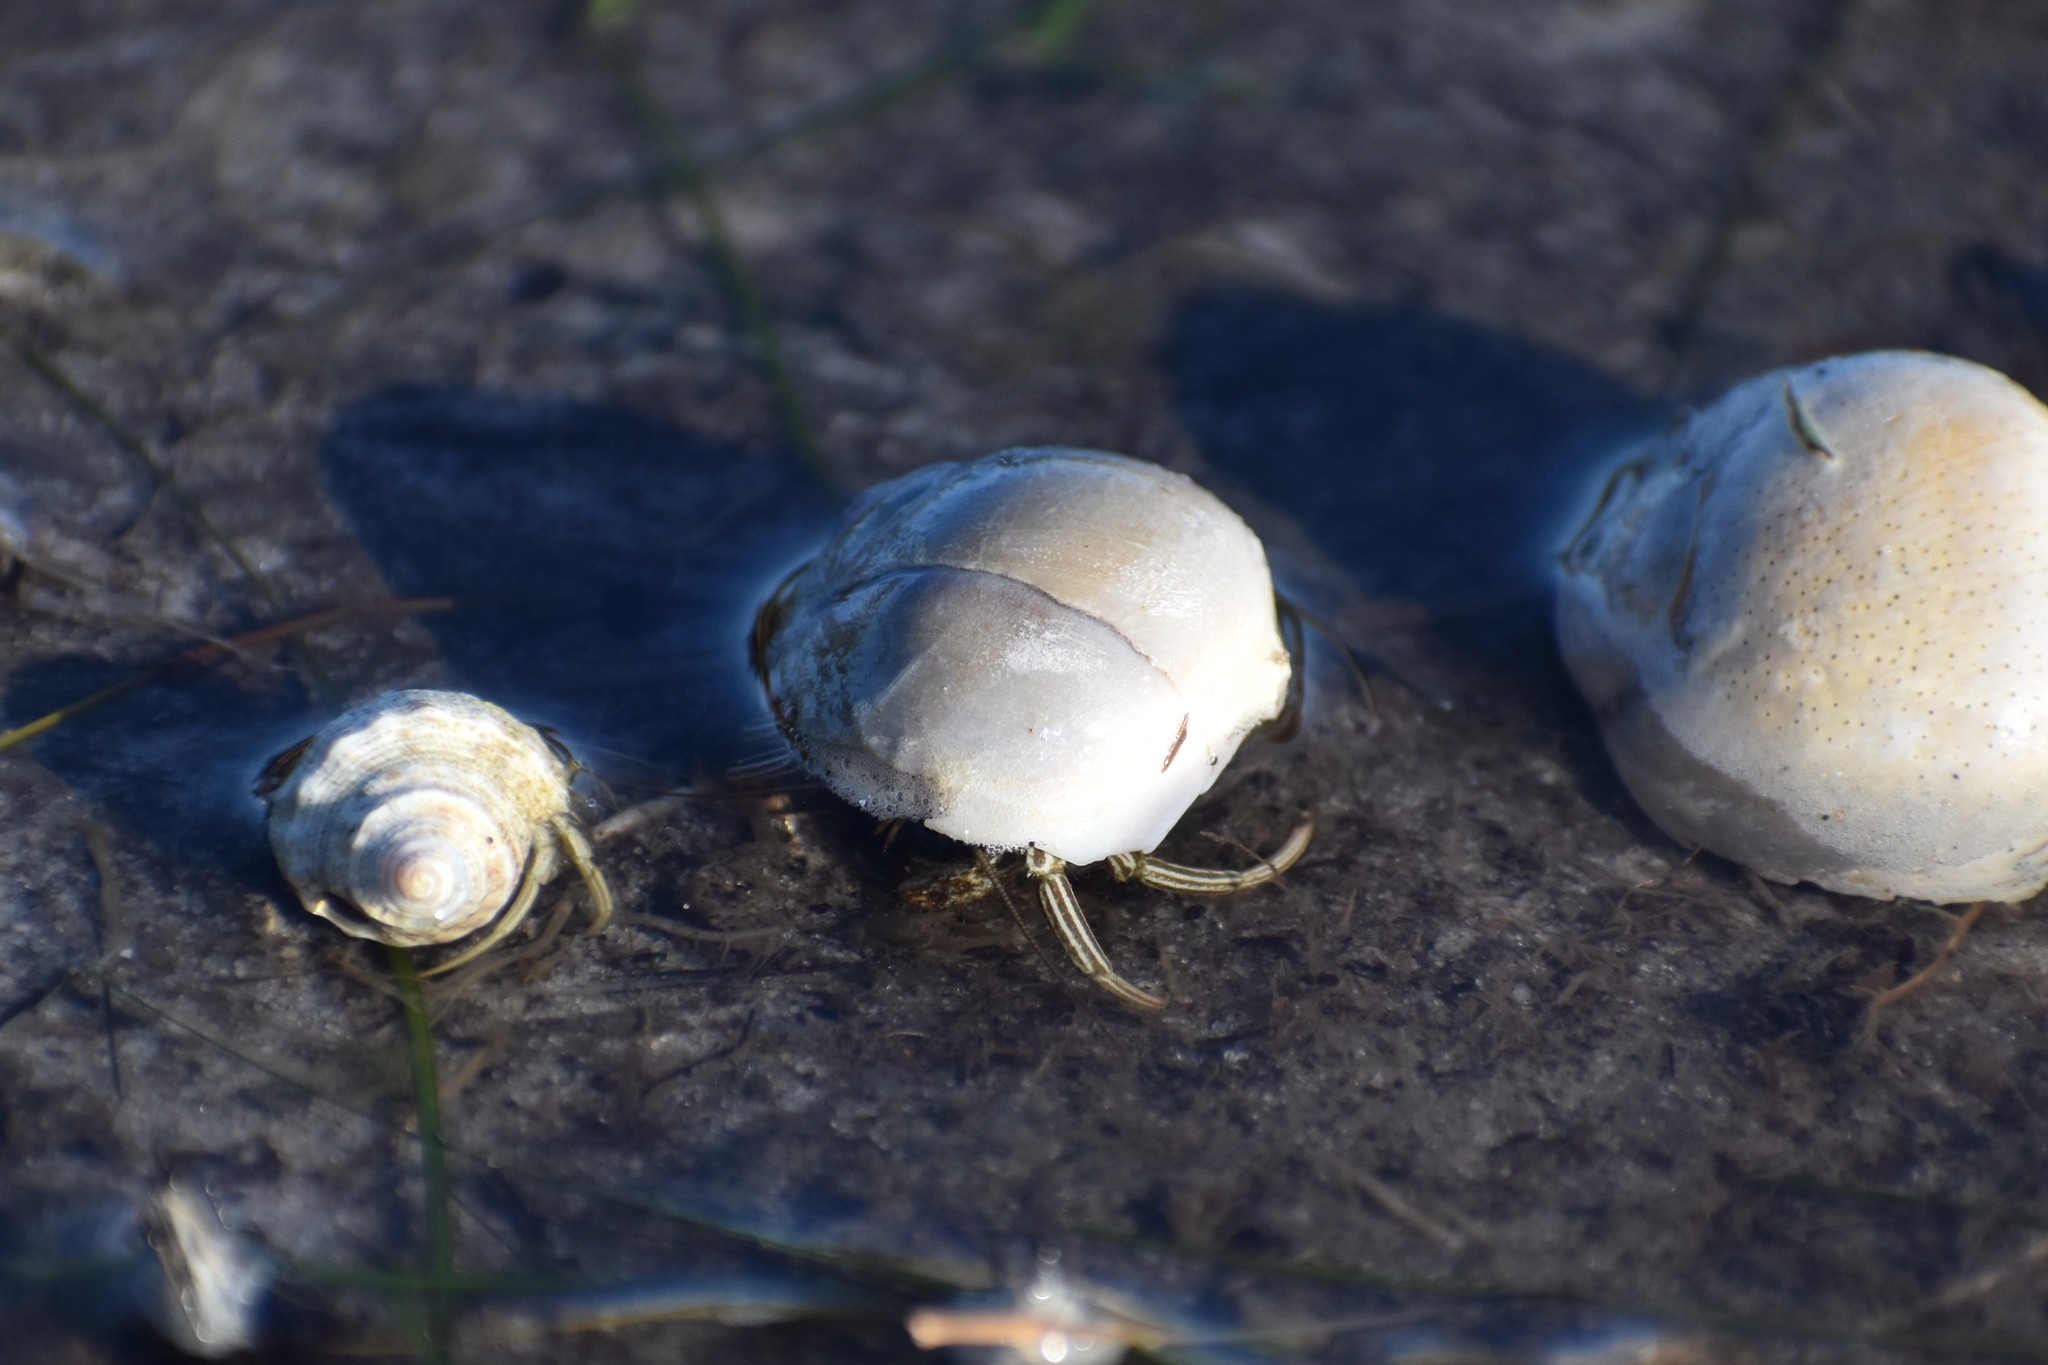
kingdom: Animalia
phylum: Arthropoda
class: Malacostraca
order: Decapoda
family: Diogenidae
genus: Clibanarius
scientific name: Clibanarius vittatus
